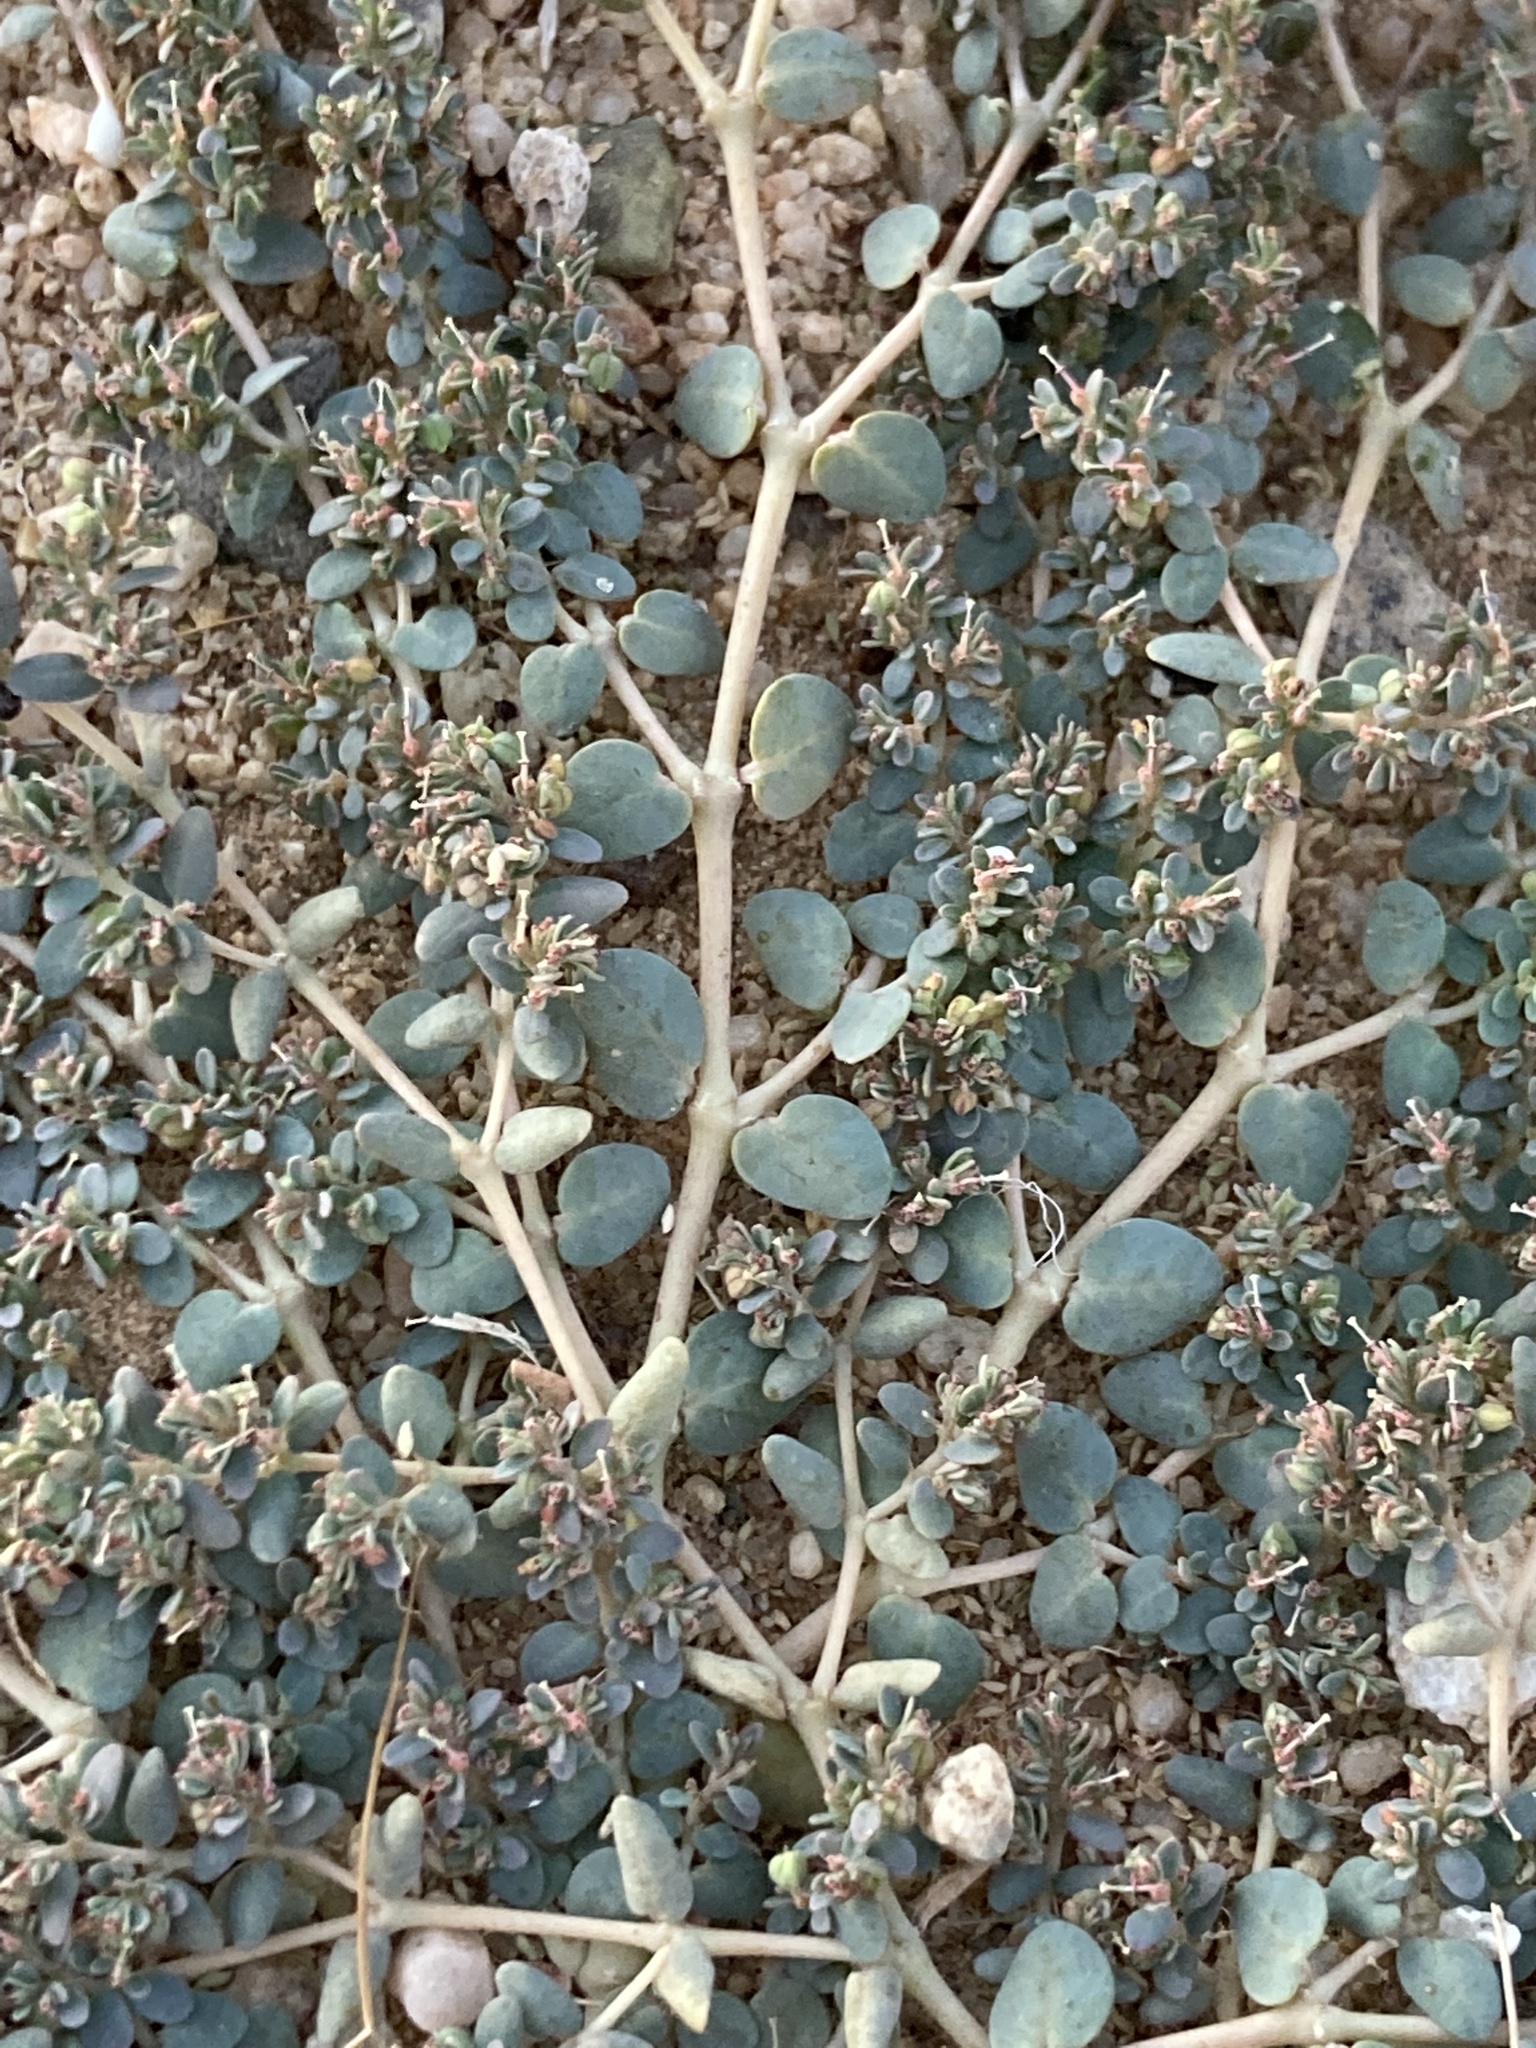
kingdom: Plantae
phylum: Tracheophyta
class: Magnoliopsida
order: Malpighiales
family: Euphorbiaceae
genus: Euphorbia
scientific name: Euphorbia micromera
